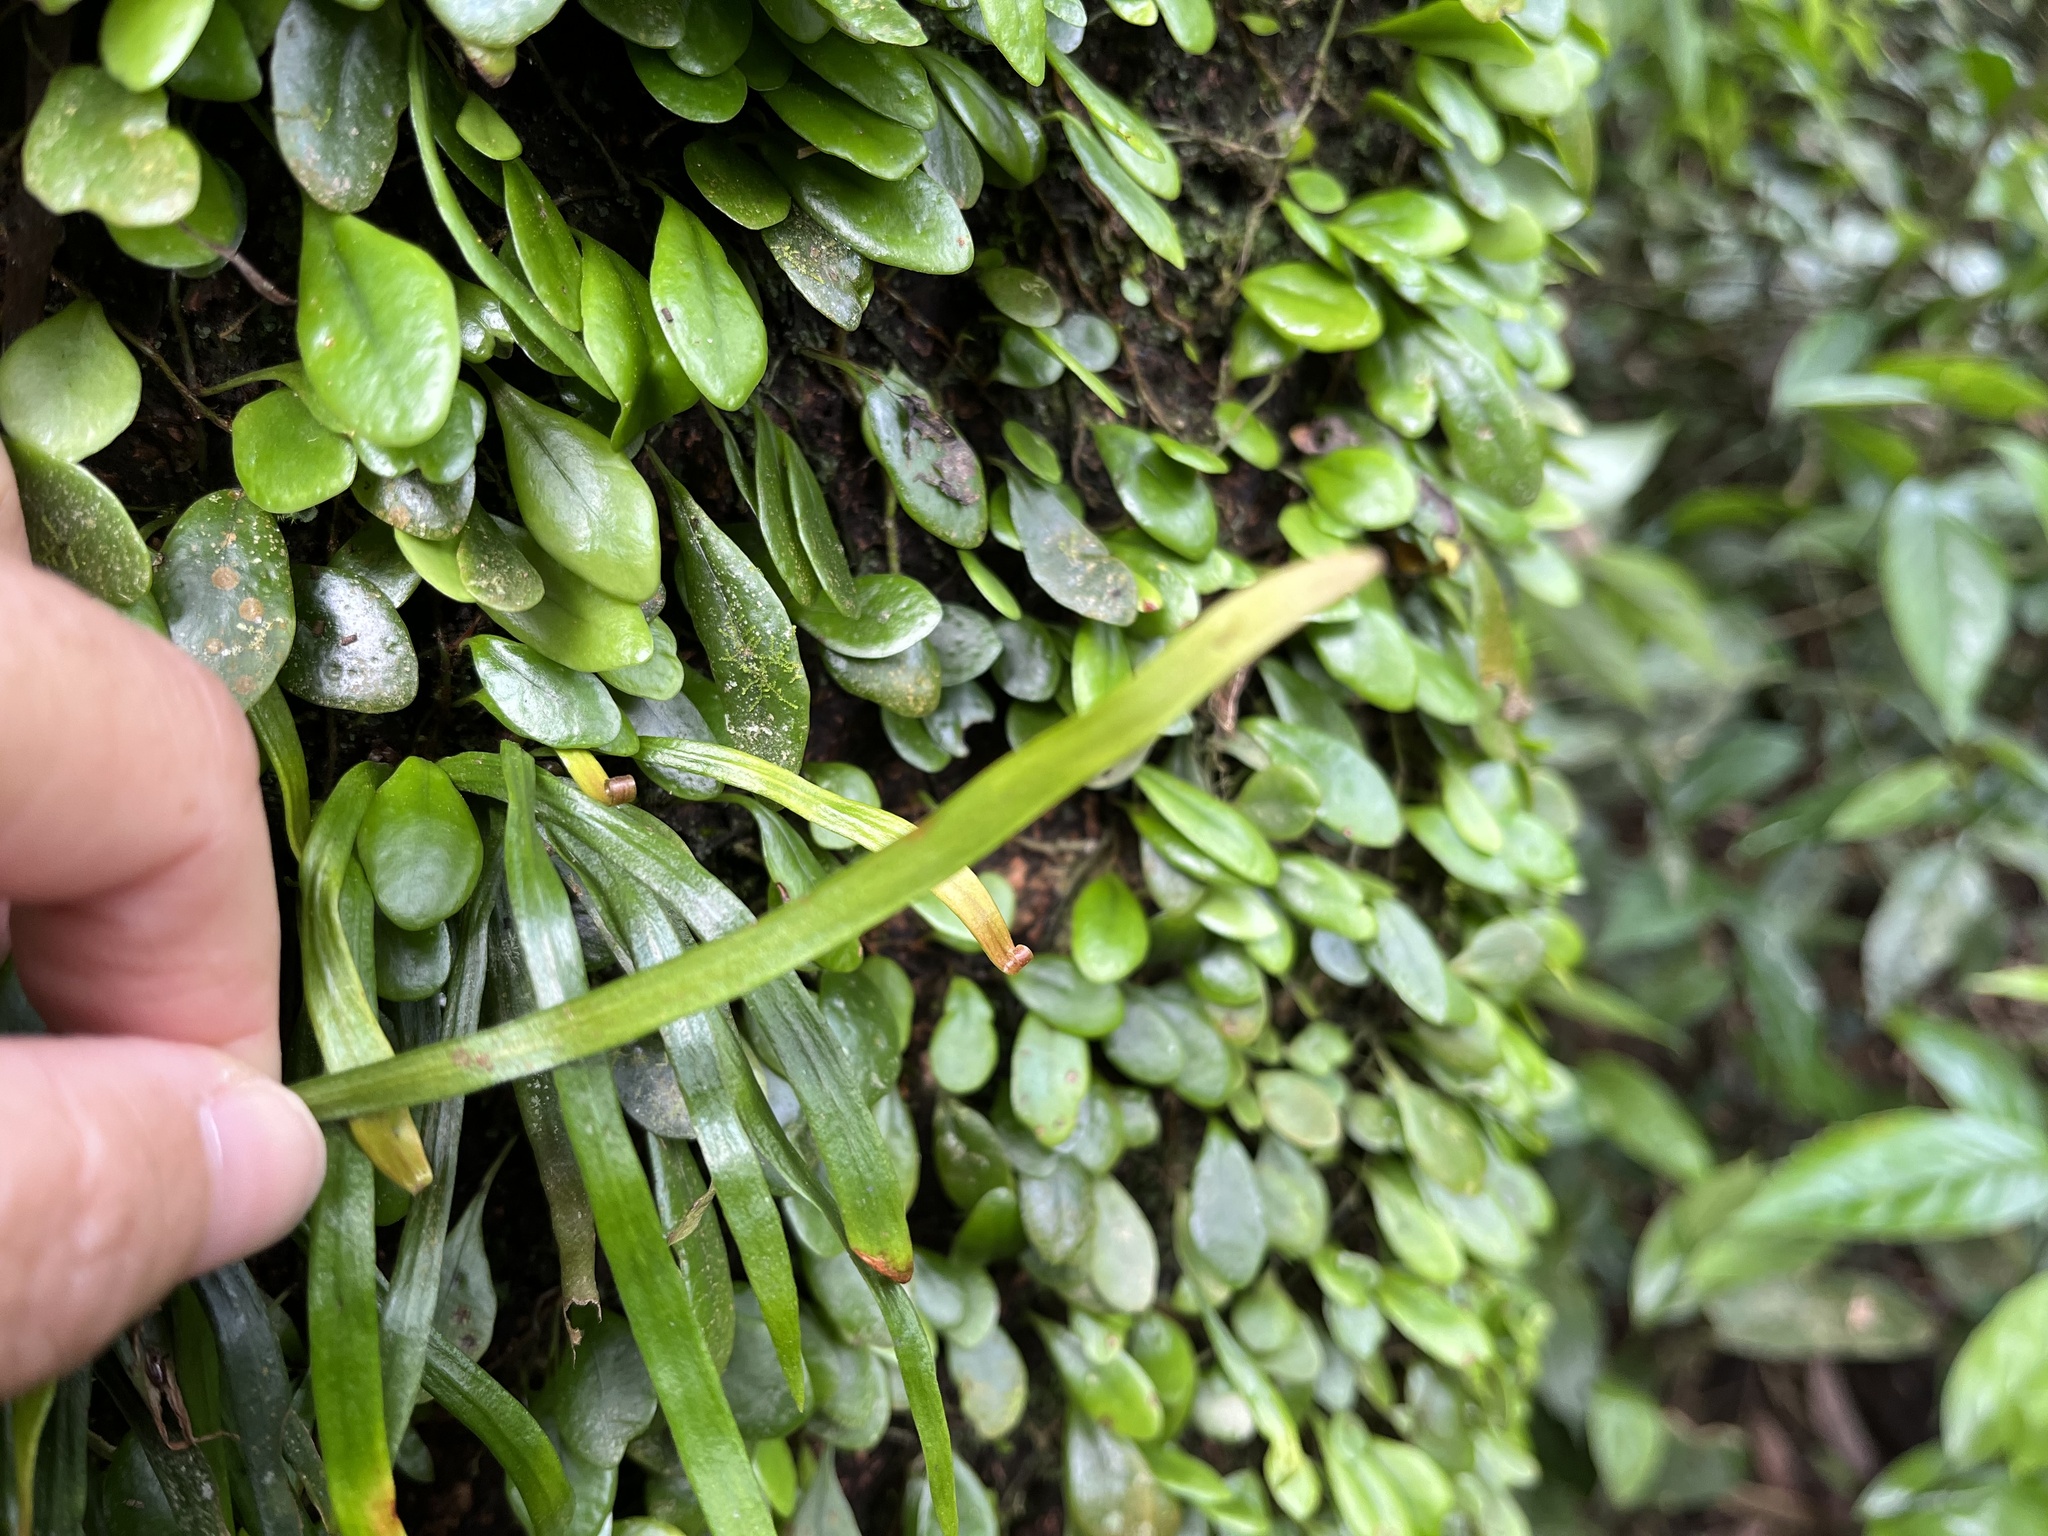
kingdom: Plantae
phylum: Tracheophyta
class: Polypodiopsida
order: Polypodiales
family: Pteridaceae
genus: Haplopteris
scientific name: Haplopteris anguste-elongata
